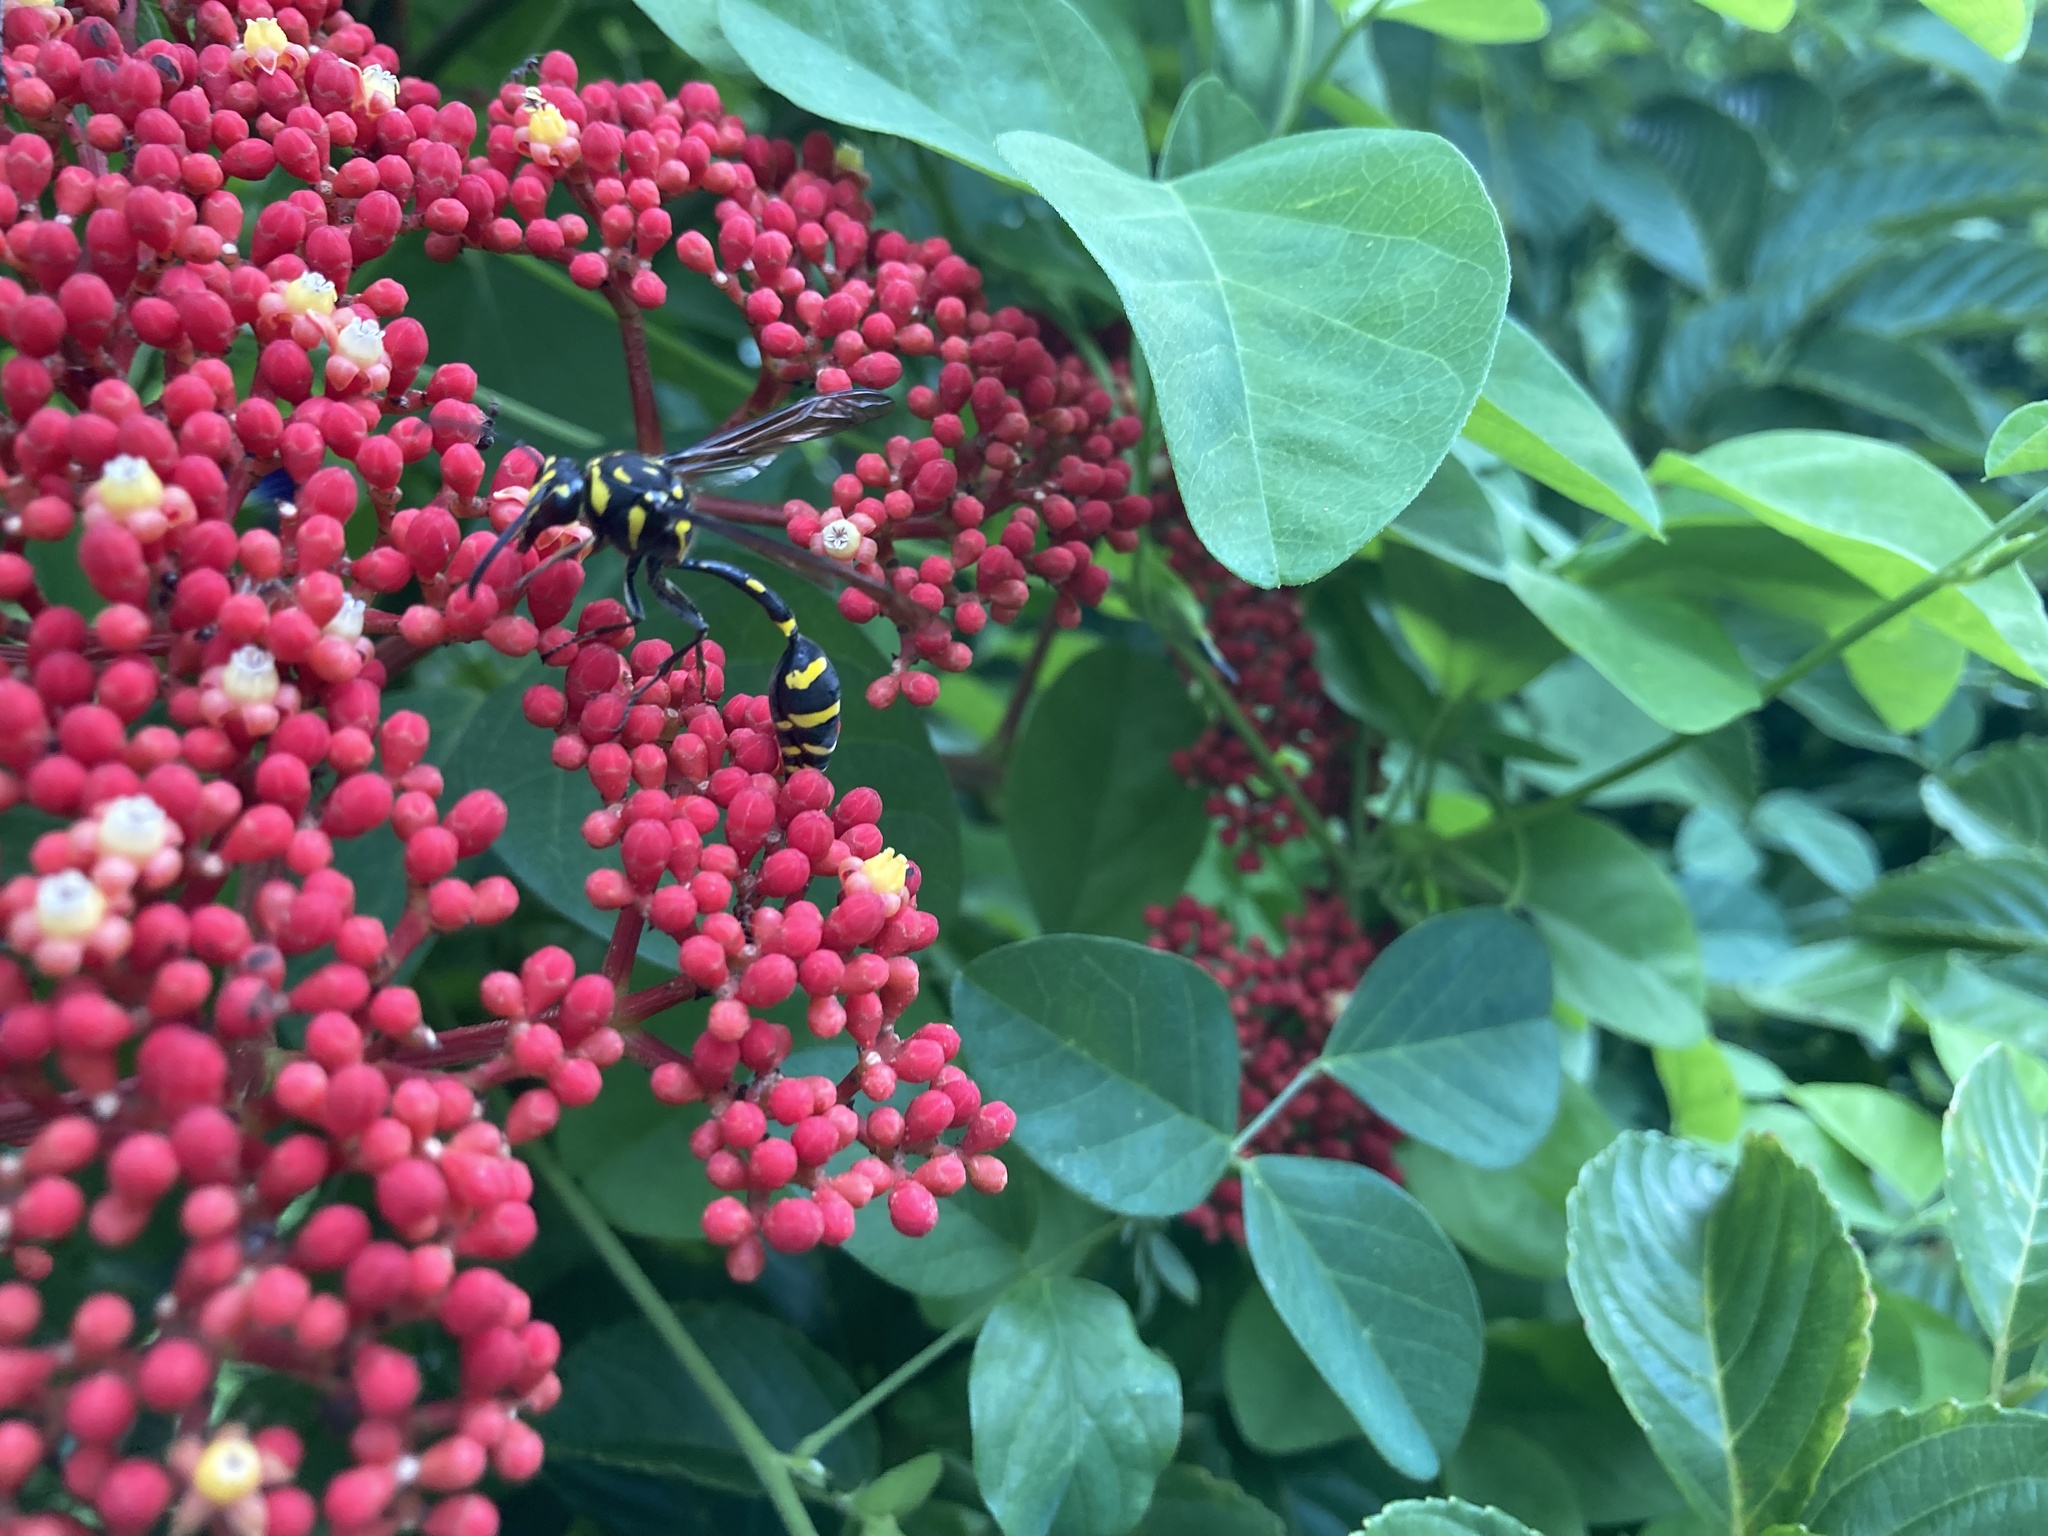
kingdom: Animalia
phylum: Arthropoda
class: Insecta
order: Hymenoptera
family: Eumenidae
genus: Phimenes
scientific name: Phimenes flavopictus
